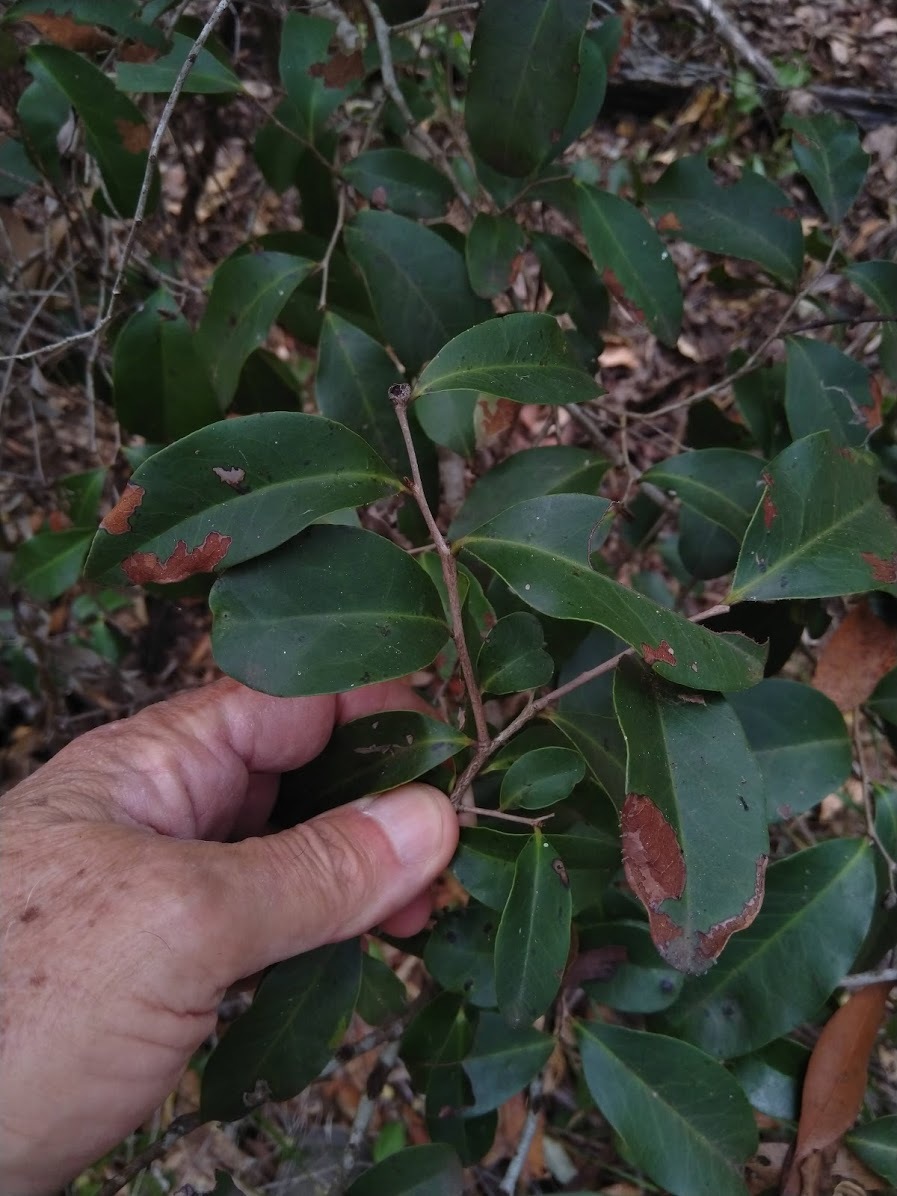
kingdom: Plantae
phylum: Tracheophyta
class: Magnoliopsida
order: Ericales
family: Ebenaceae
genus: Diospyros
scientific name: Diospyros geminata
